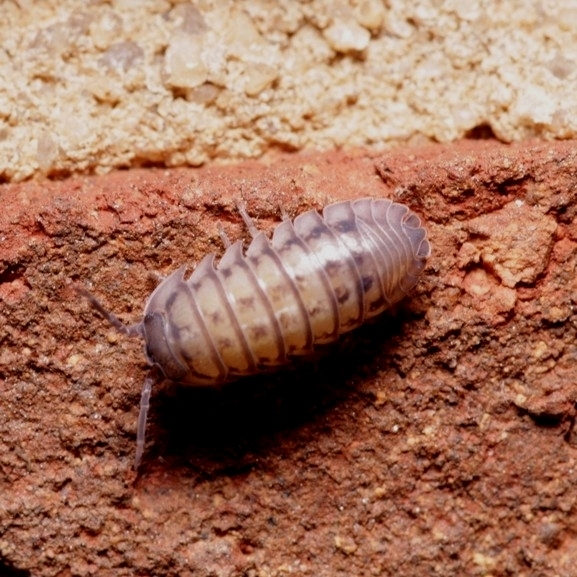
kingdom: Animalia
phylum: Arthropoda
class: Malacostraca
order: Isopoda
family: Armadillidiidae
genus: Armadillidium
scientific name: Armadillidium nasatum
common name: Isopod
